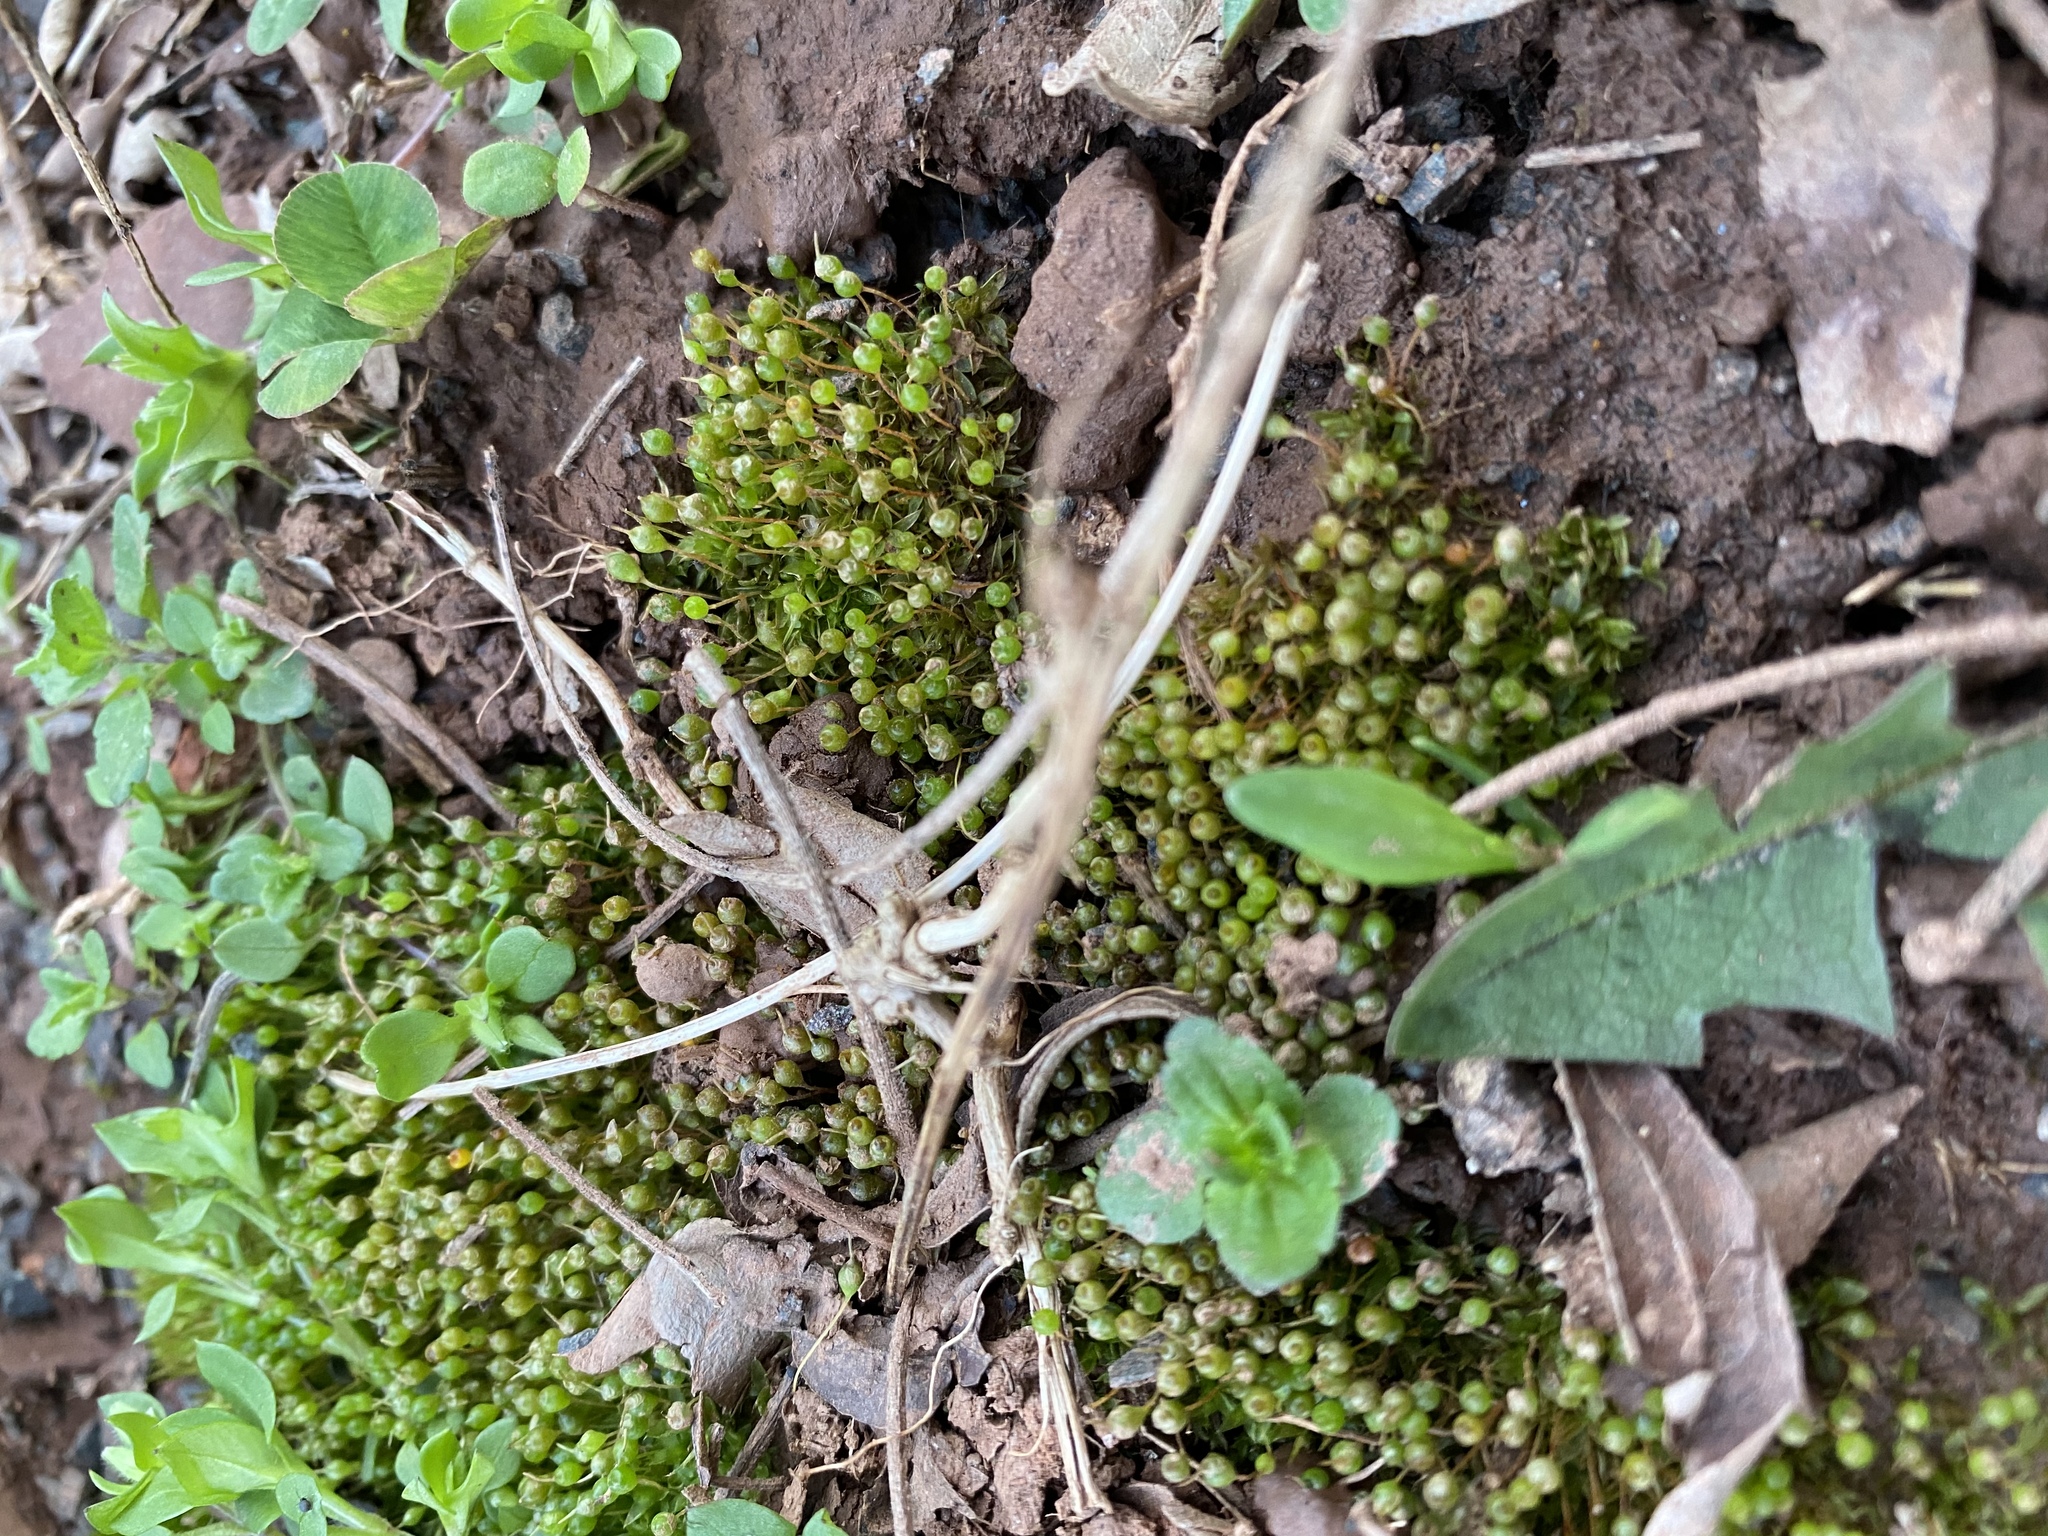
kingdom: Plantae
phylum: Bryophyta
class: Bryopsida
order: Funariales
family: Funariaceae
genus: Physcomitrium
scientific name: Physcomitrium pyriforme
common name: Common bladder-moss
